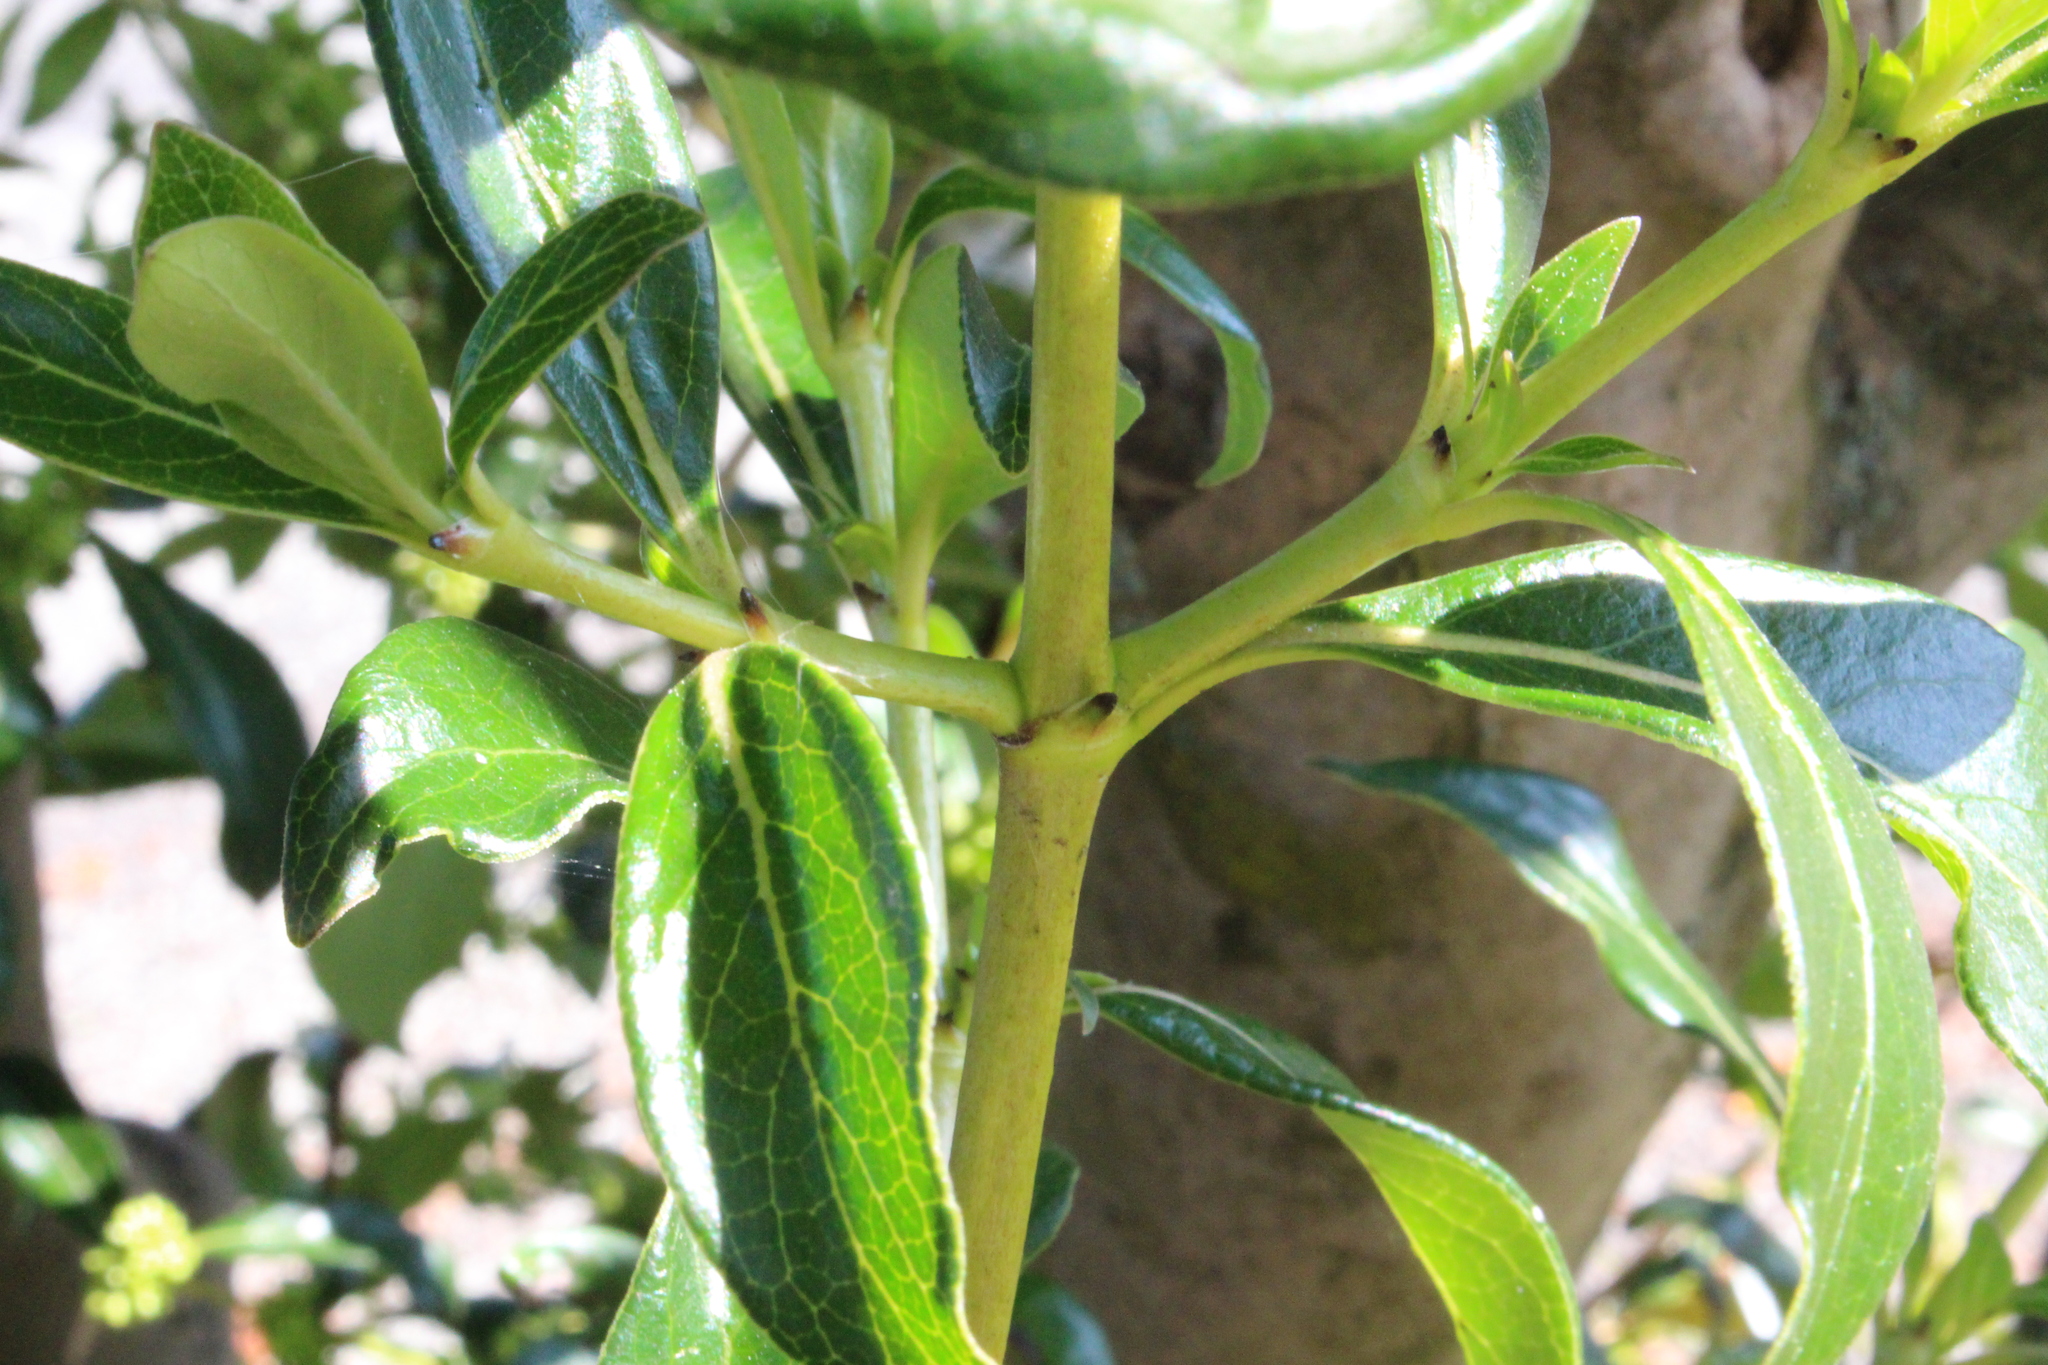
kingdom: Plantae
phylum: Tracheophyta
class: Magnoliopsida
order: Gentianales
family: Rubiaceae
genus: Coprosma
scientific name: Coprosma robusta
